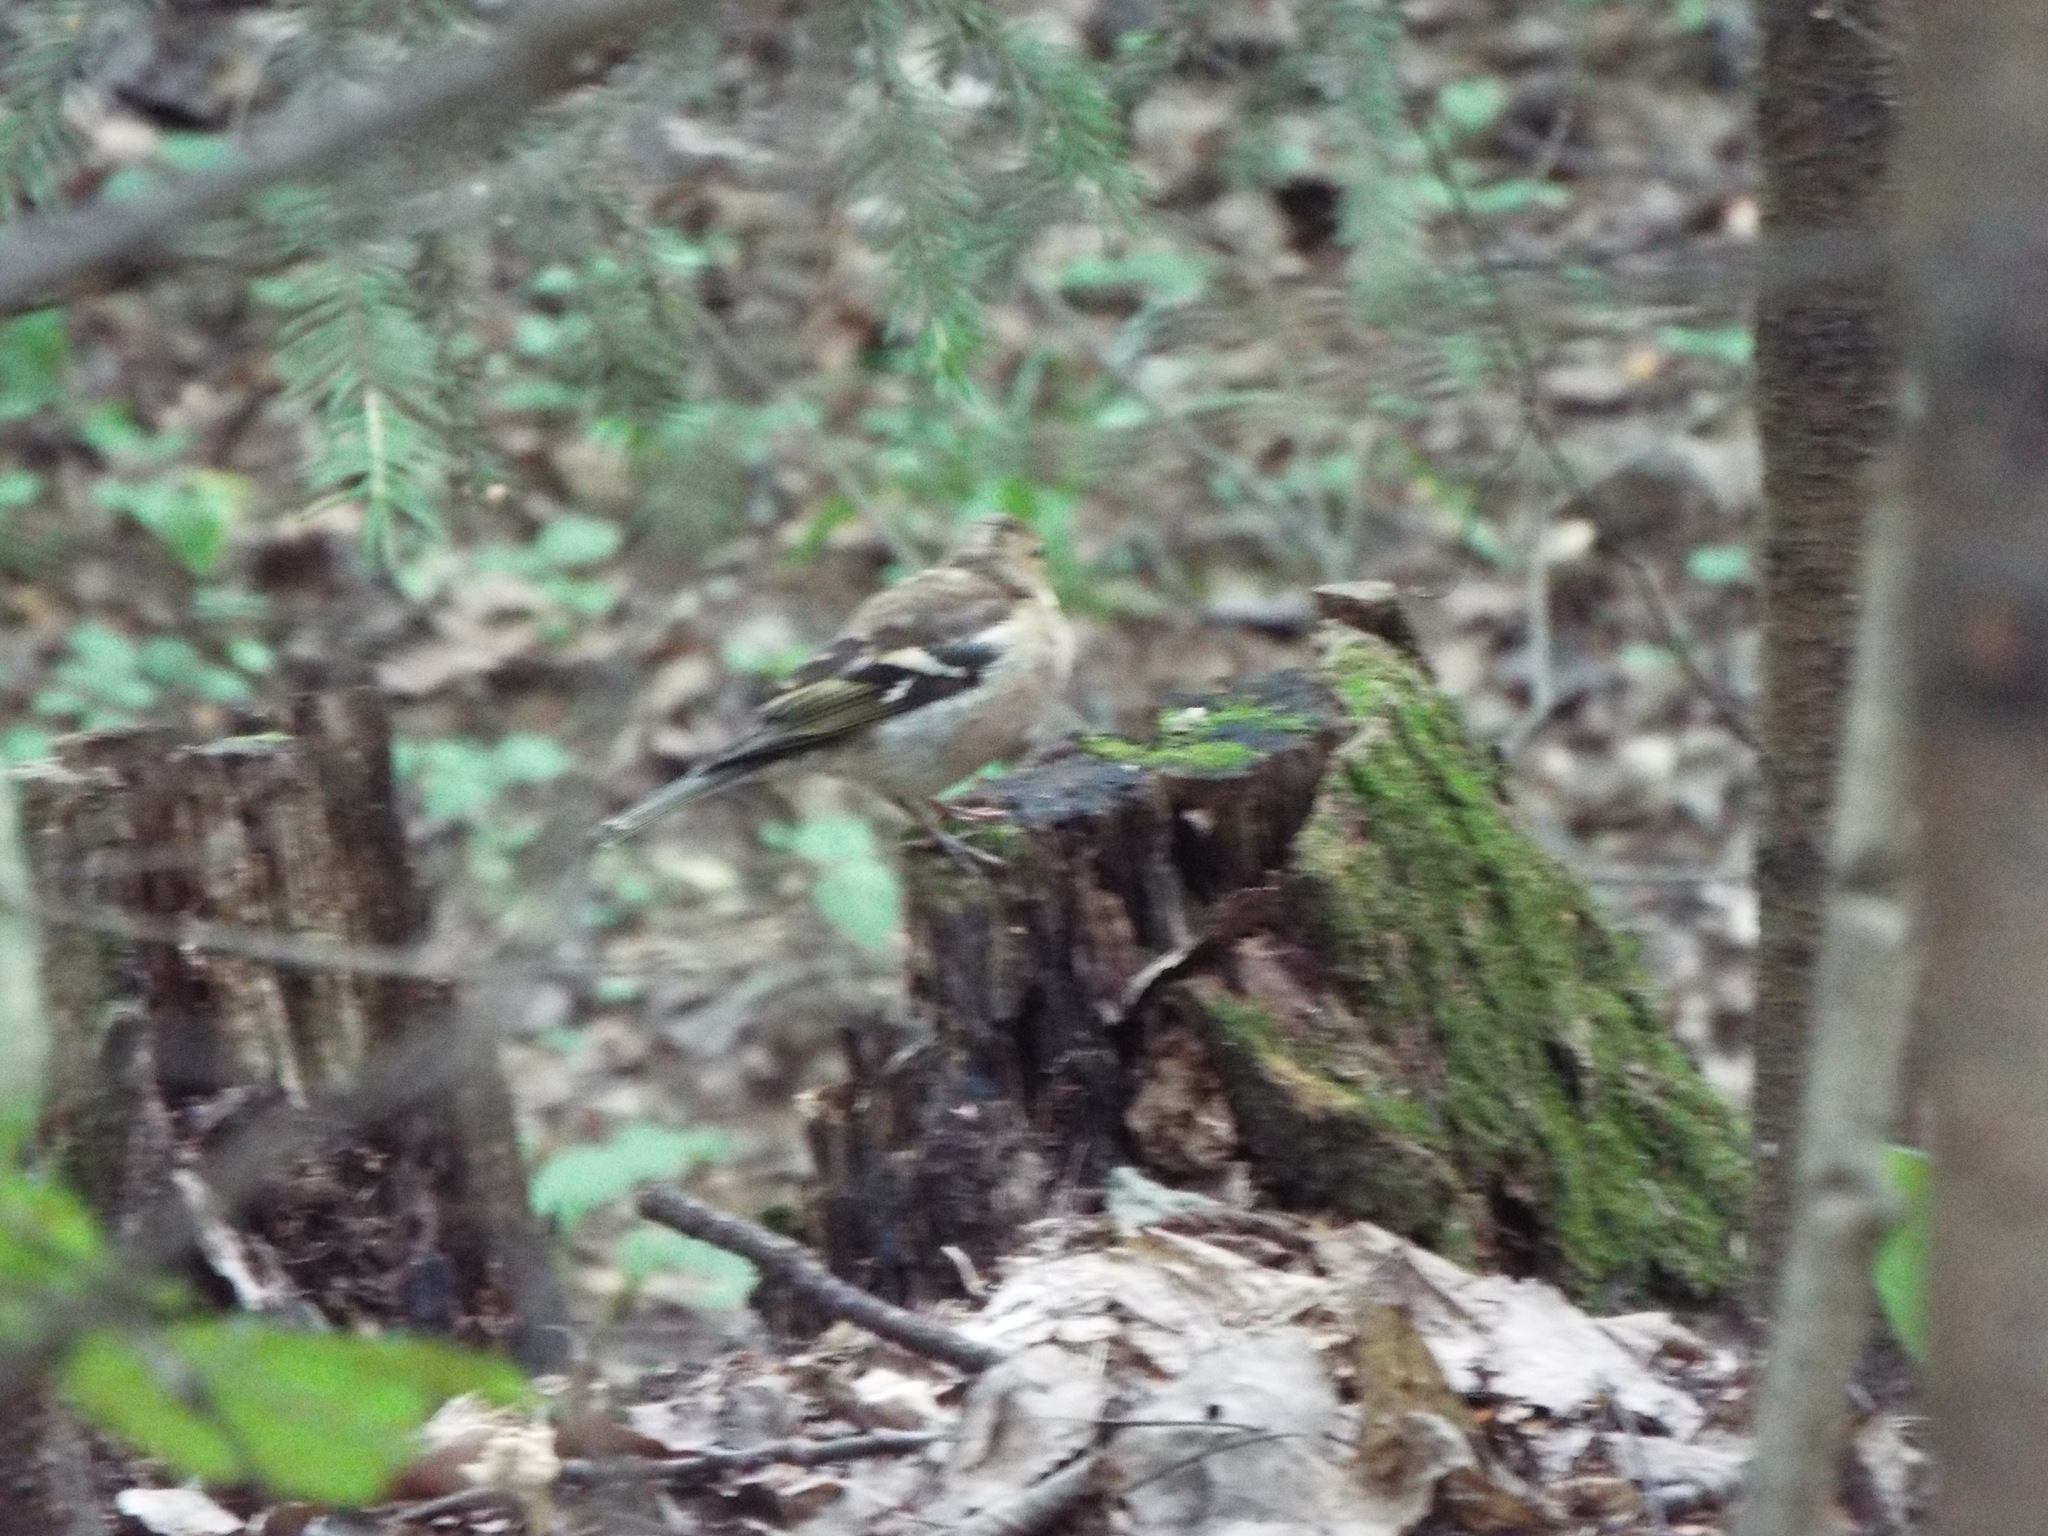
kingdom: Animalia
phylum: Chordata
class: Aves
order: Passeriformes
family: Fringillidae
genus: Fringilla
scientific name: Fringilla coelebs
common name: Common chaffinch
